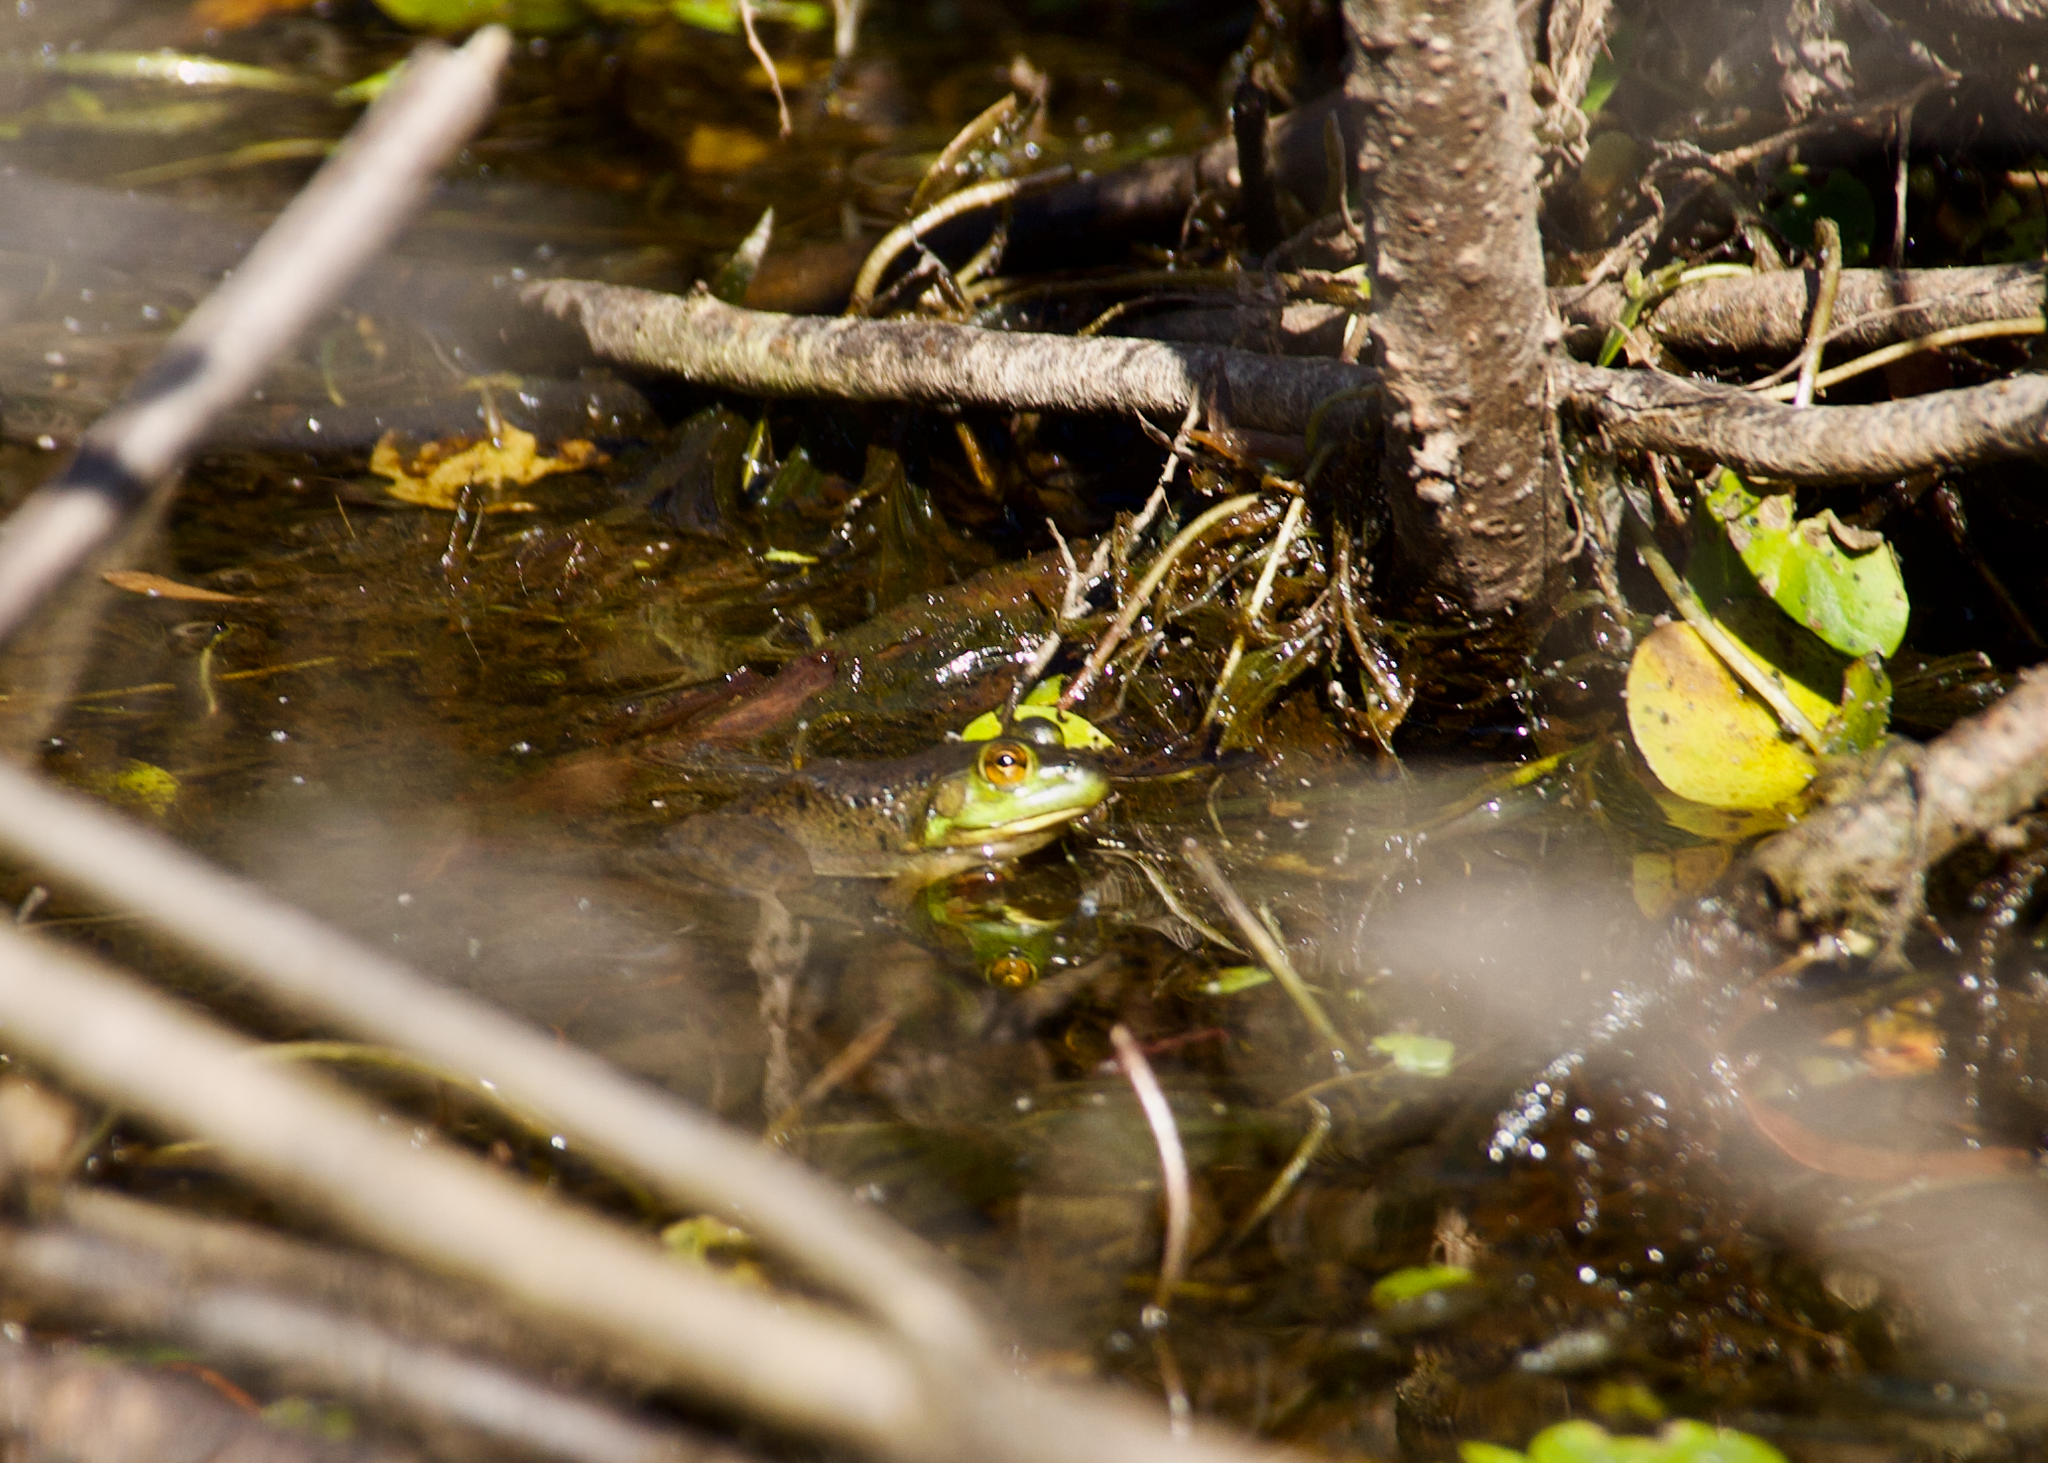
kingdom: Animalia
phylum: Chordata
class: Amphibia
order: Anura
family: Ranidae
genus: Lithobates
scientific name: Lithobates catesbeianus
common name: American bullfrog
